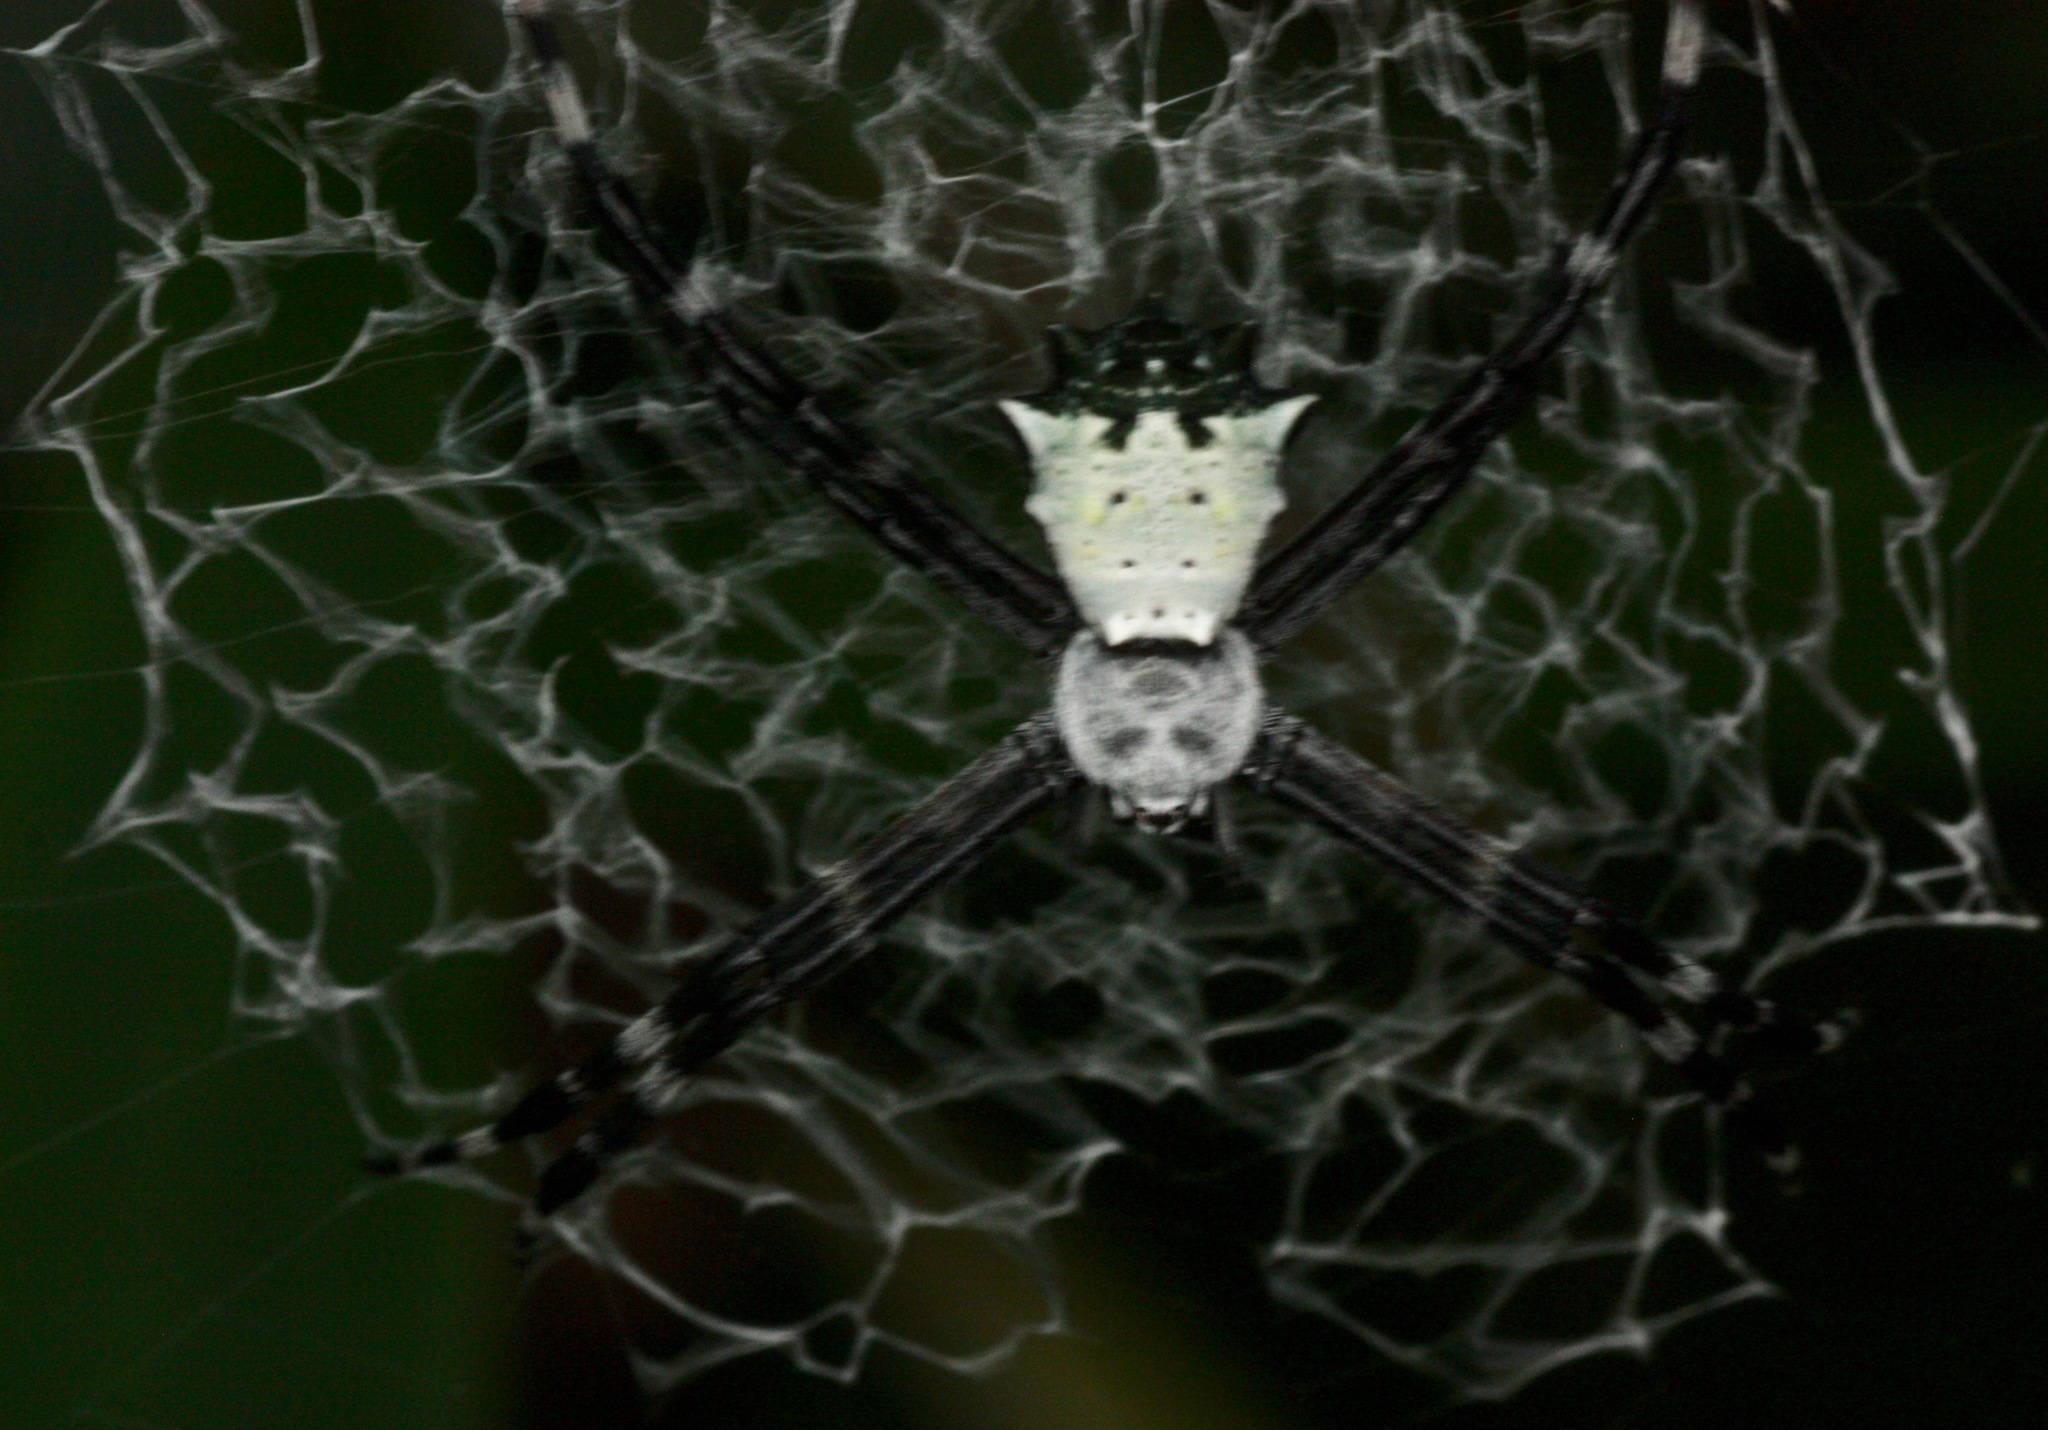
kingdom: Animalia
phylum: Arthropoda
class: Arachnida
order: Araneae
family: Araneidae
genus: Argiope
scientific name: Argiope submaronica
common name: Orb weavers
